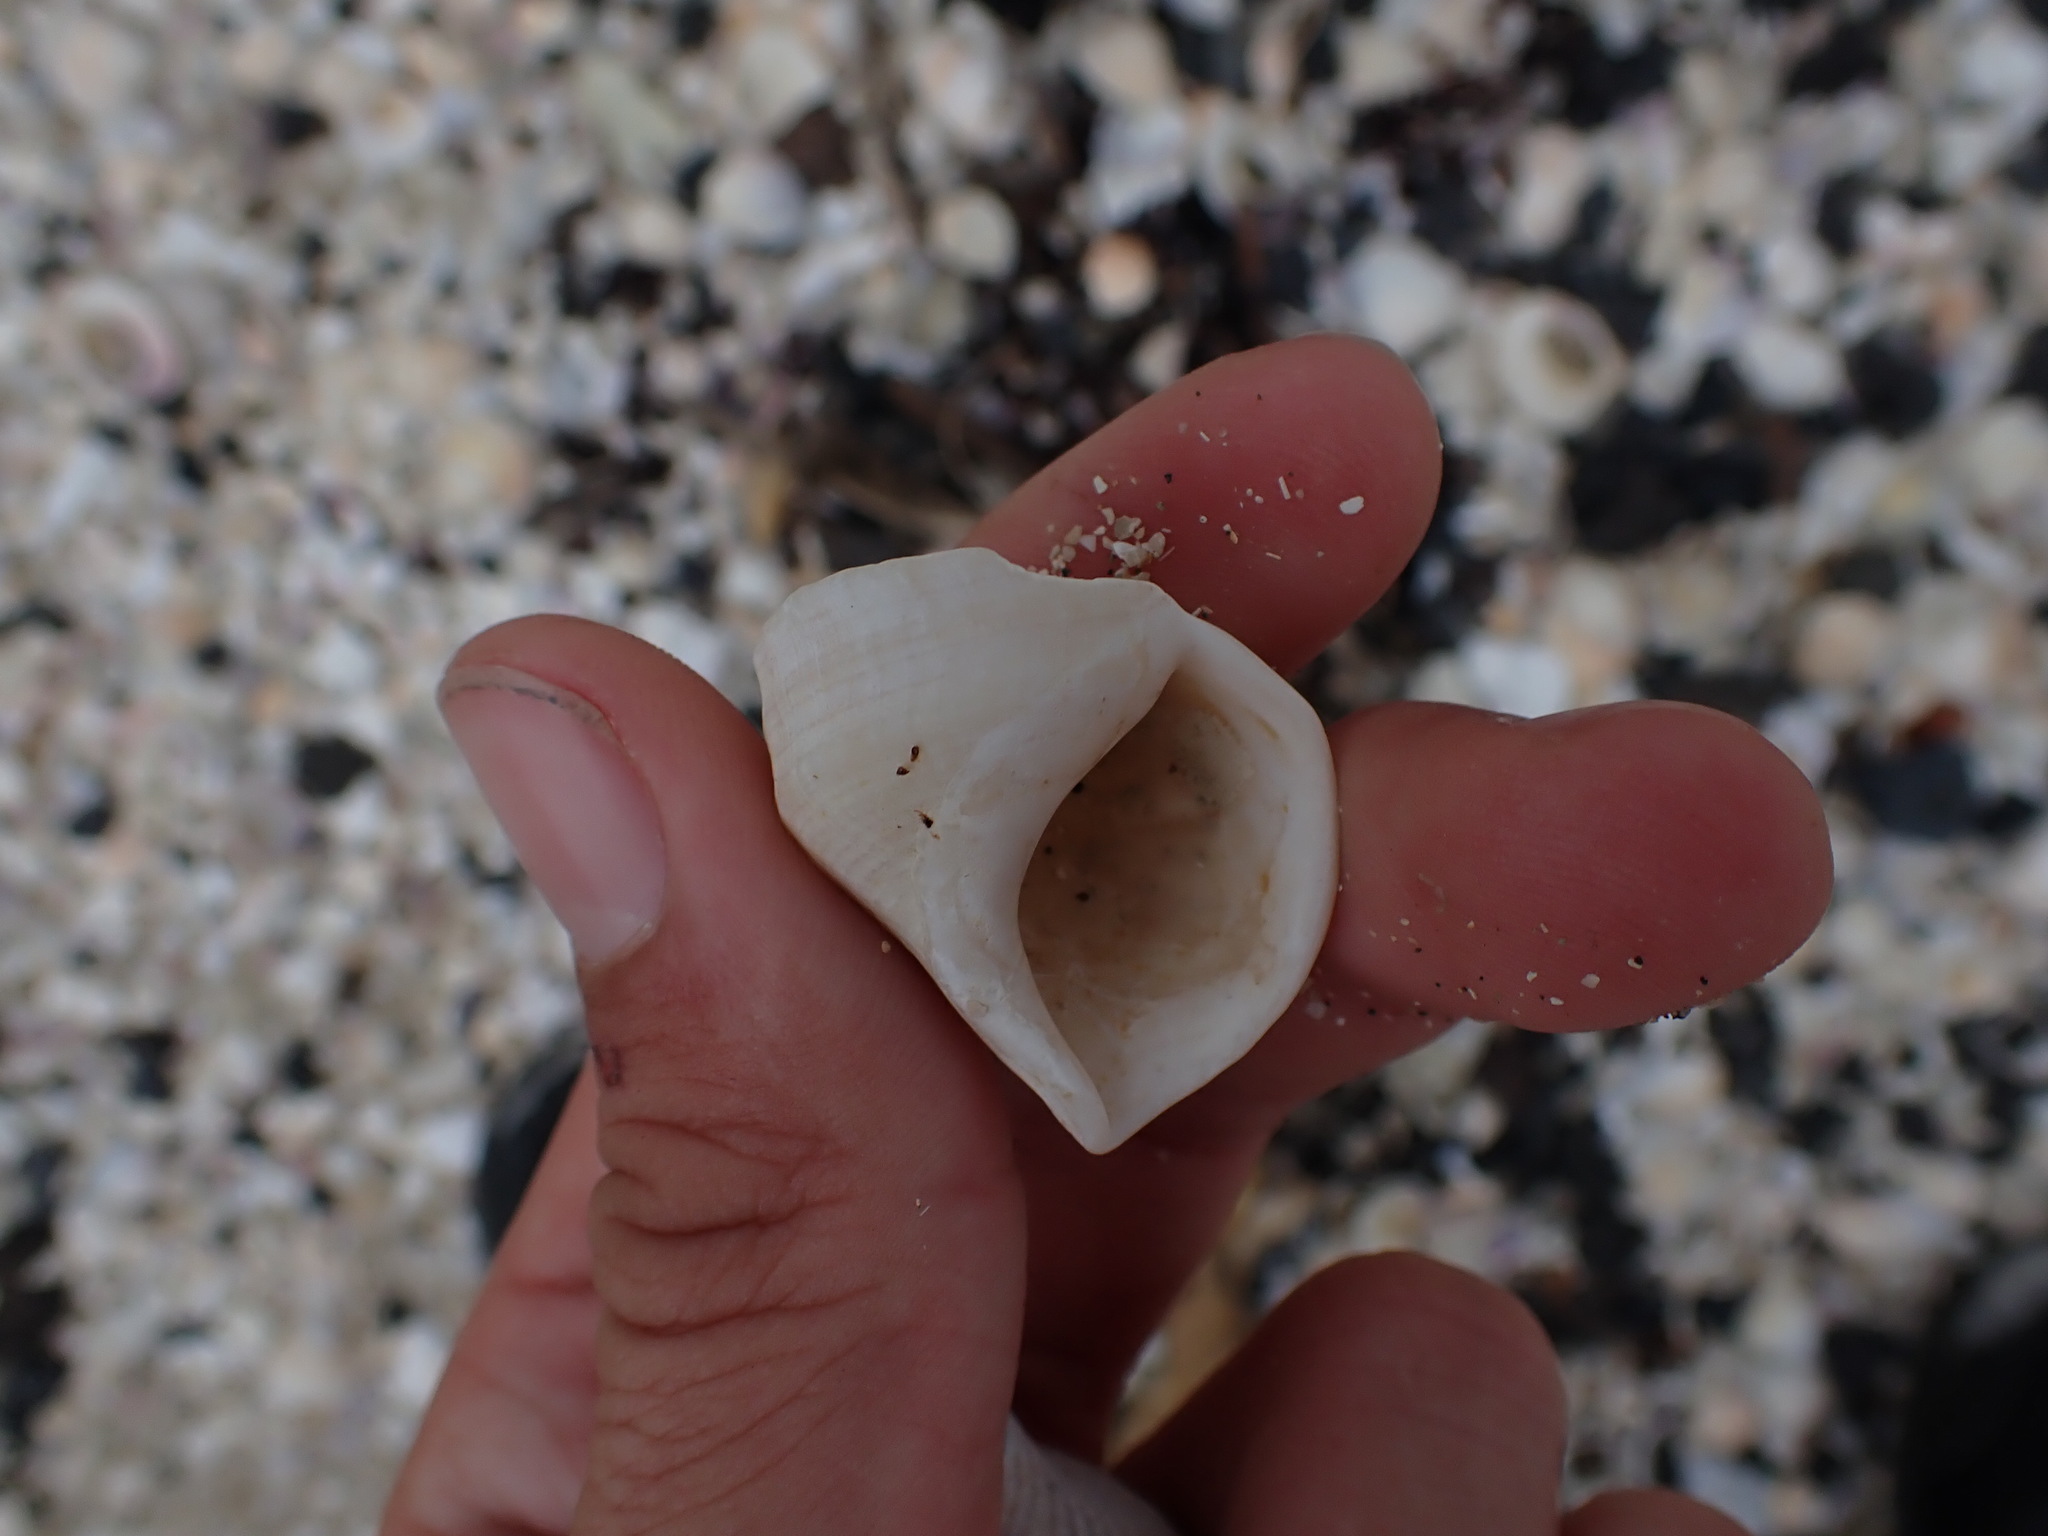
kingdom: Animalia
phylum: Mollusca
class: Gastropoda
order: Littorinimorpha
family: Struthiolariidae
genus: Pelicaria
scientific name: Pelicaria vermis
